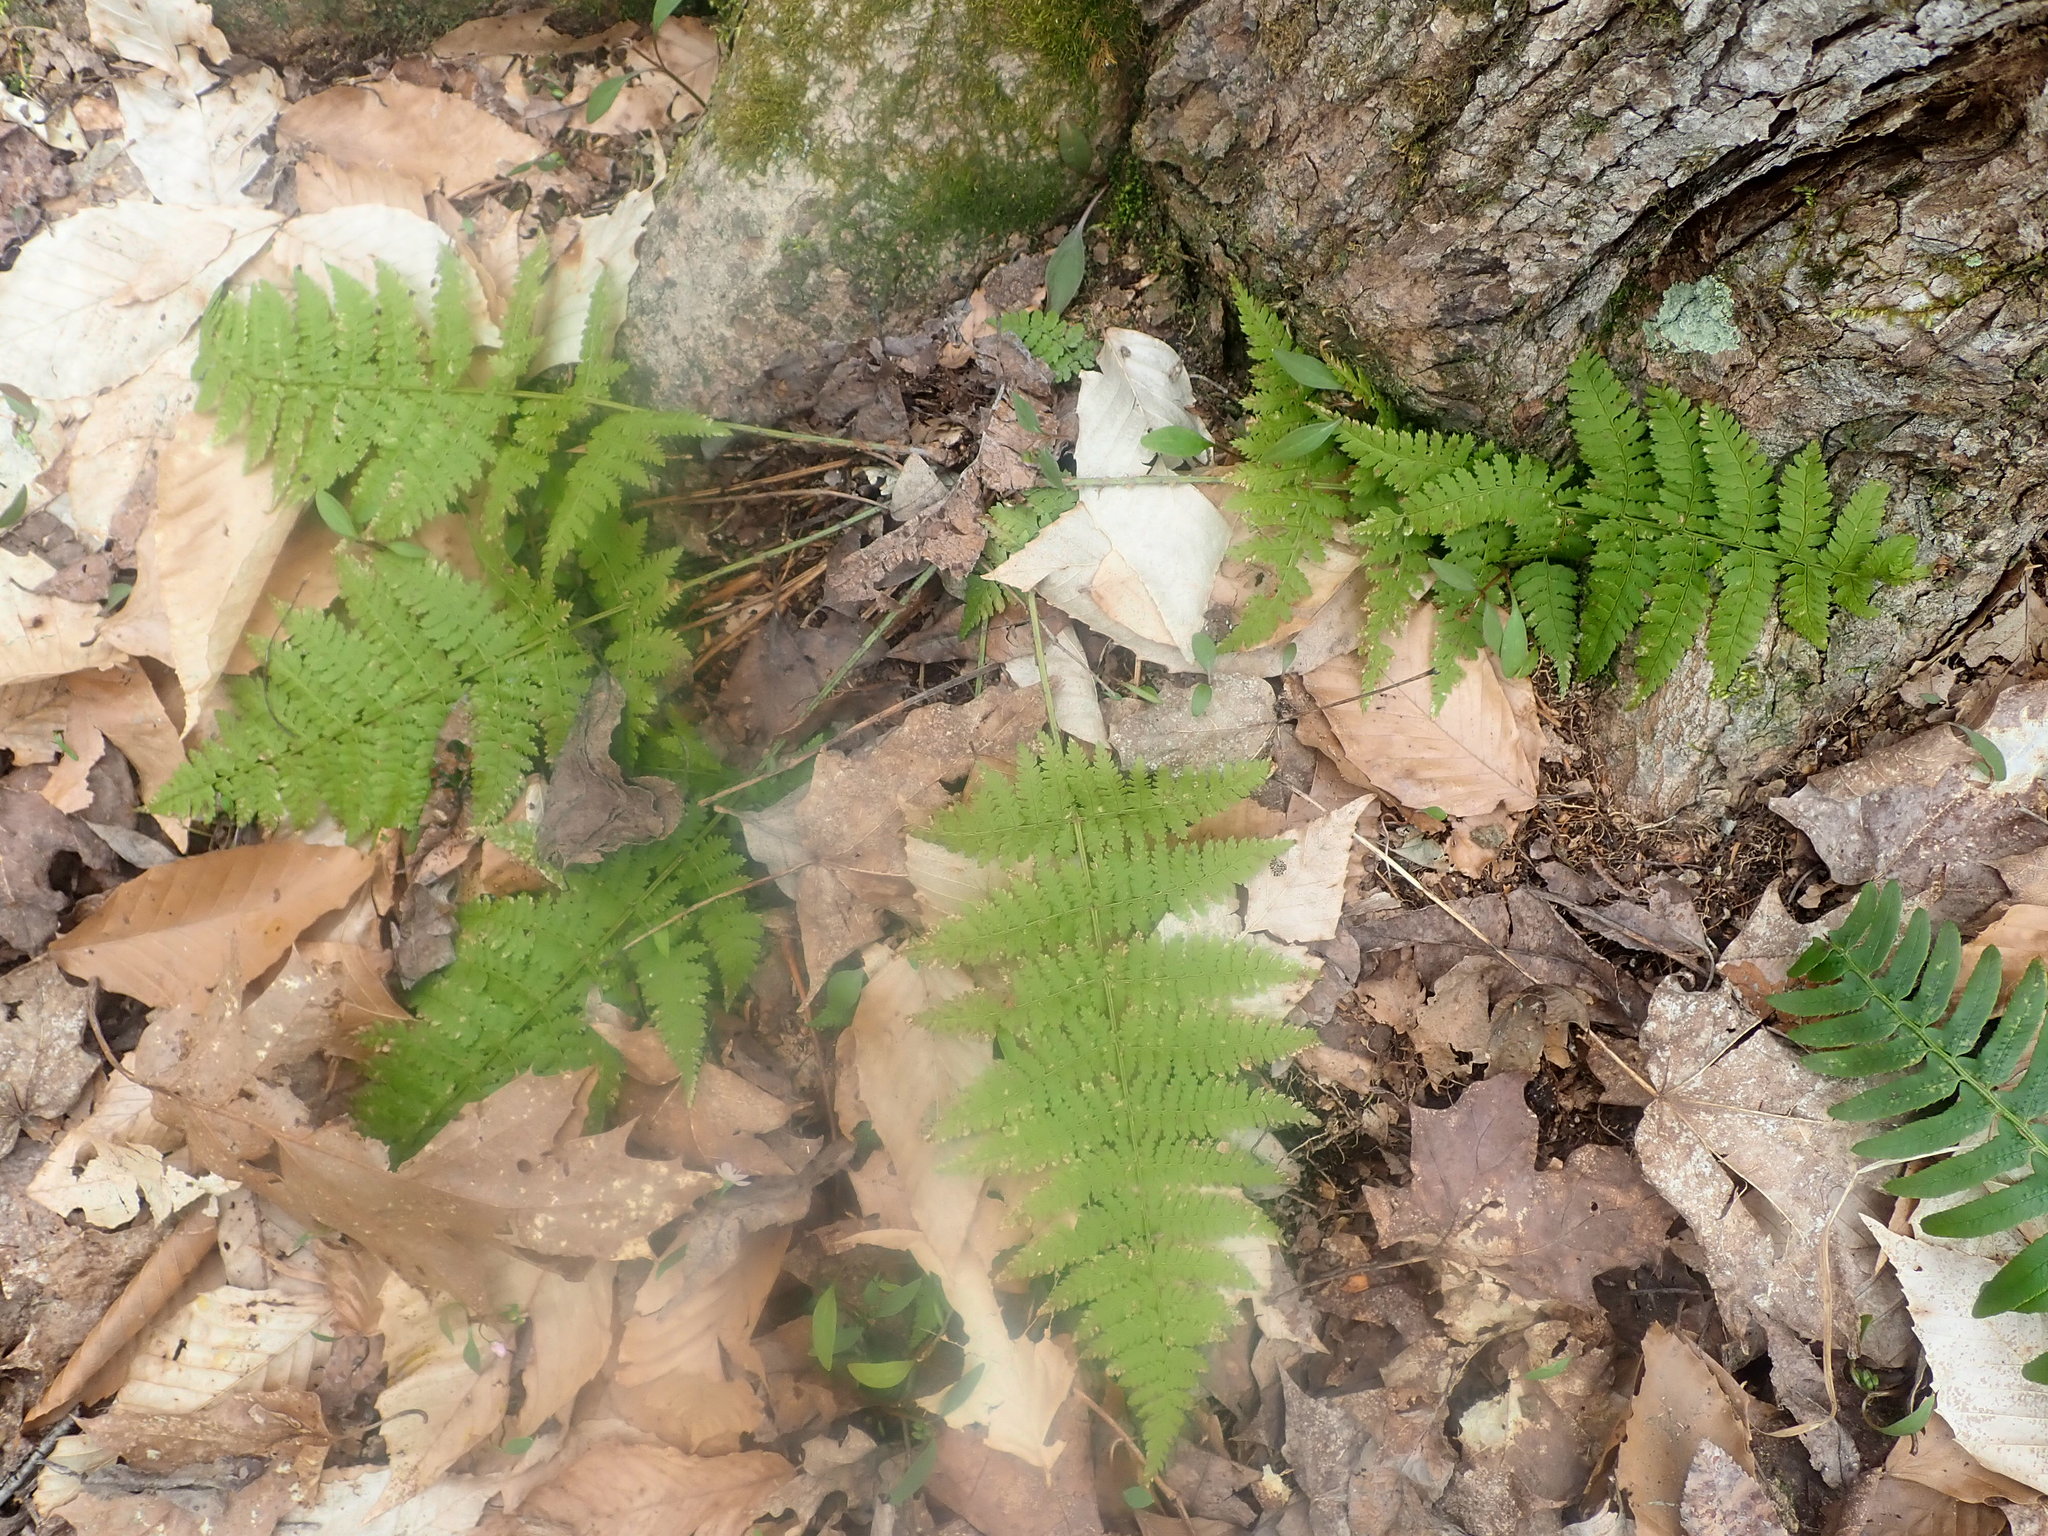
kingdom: Plantae
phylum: Tracheophyta
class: Polypodiopsida
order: Polypodiales
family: Dryopteridaceae
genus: Dryopteris
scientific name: Dryopteris intermedia
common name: Evergreen wood fern
